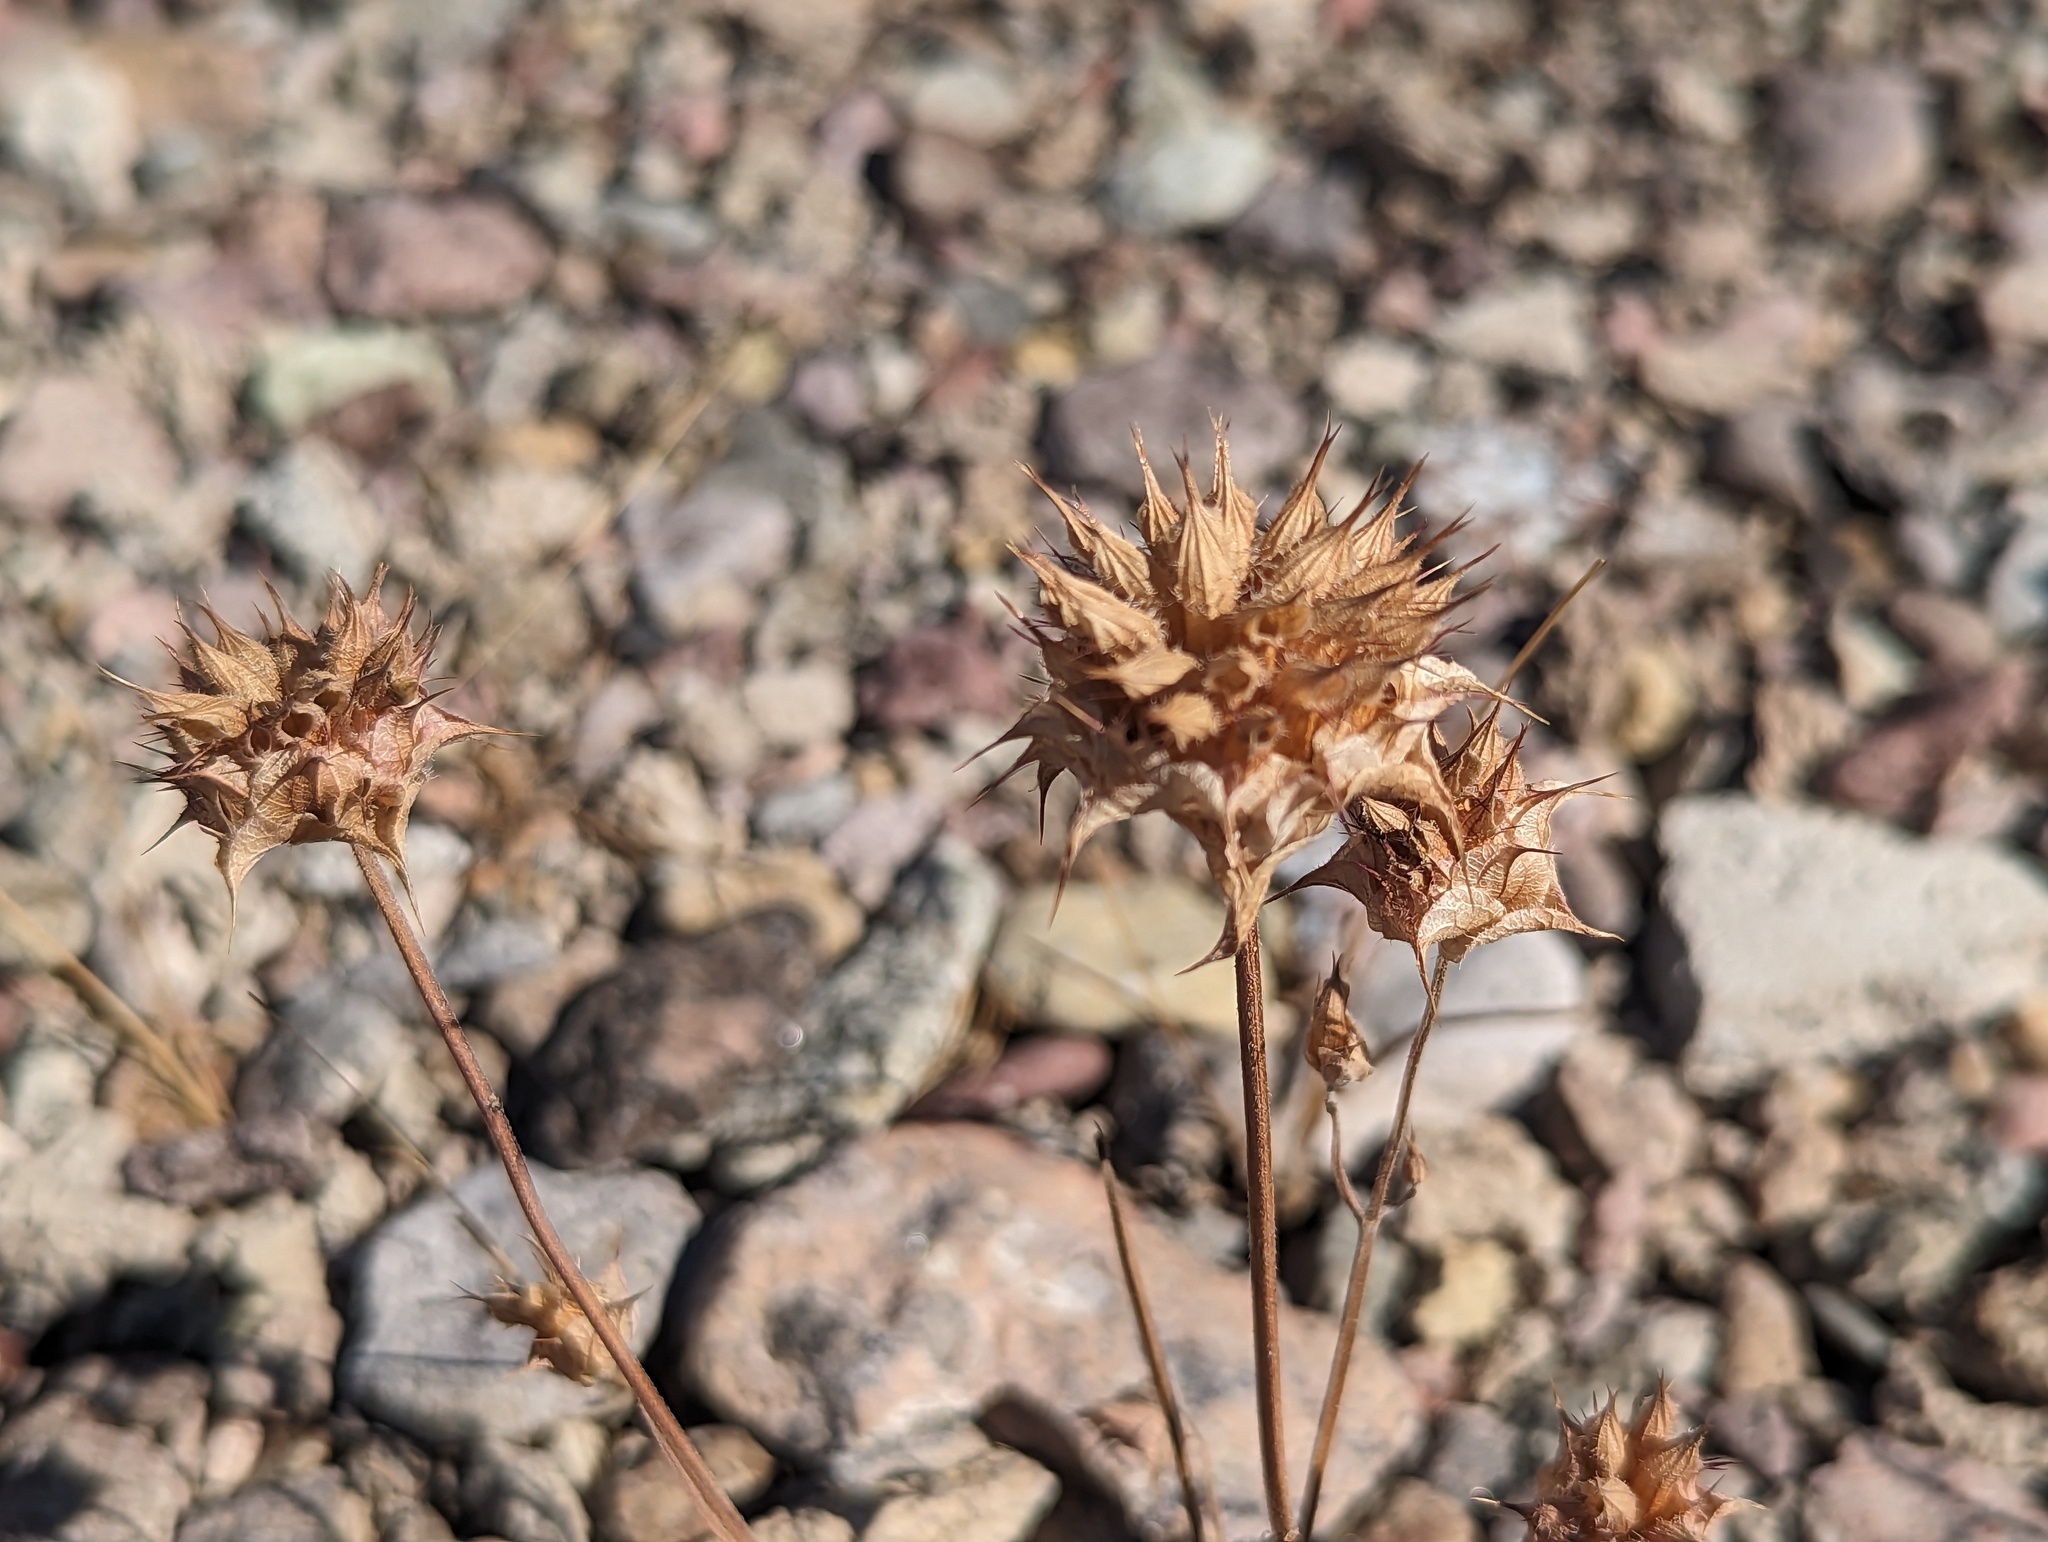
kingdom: Plantae
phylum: Tracheophyta
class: Magnoliopsida
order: Lamiales
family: Lamiaceae
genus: Salvia
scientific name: Salvia columbariae
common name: Chia
